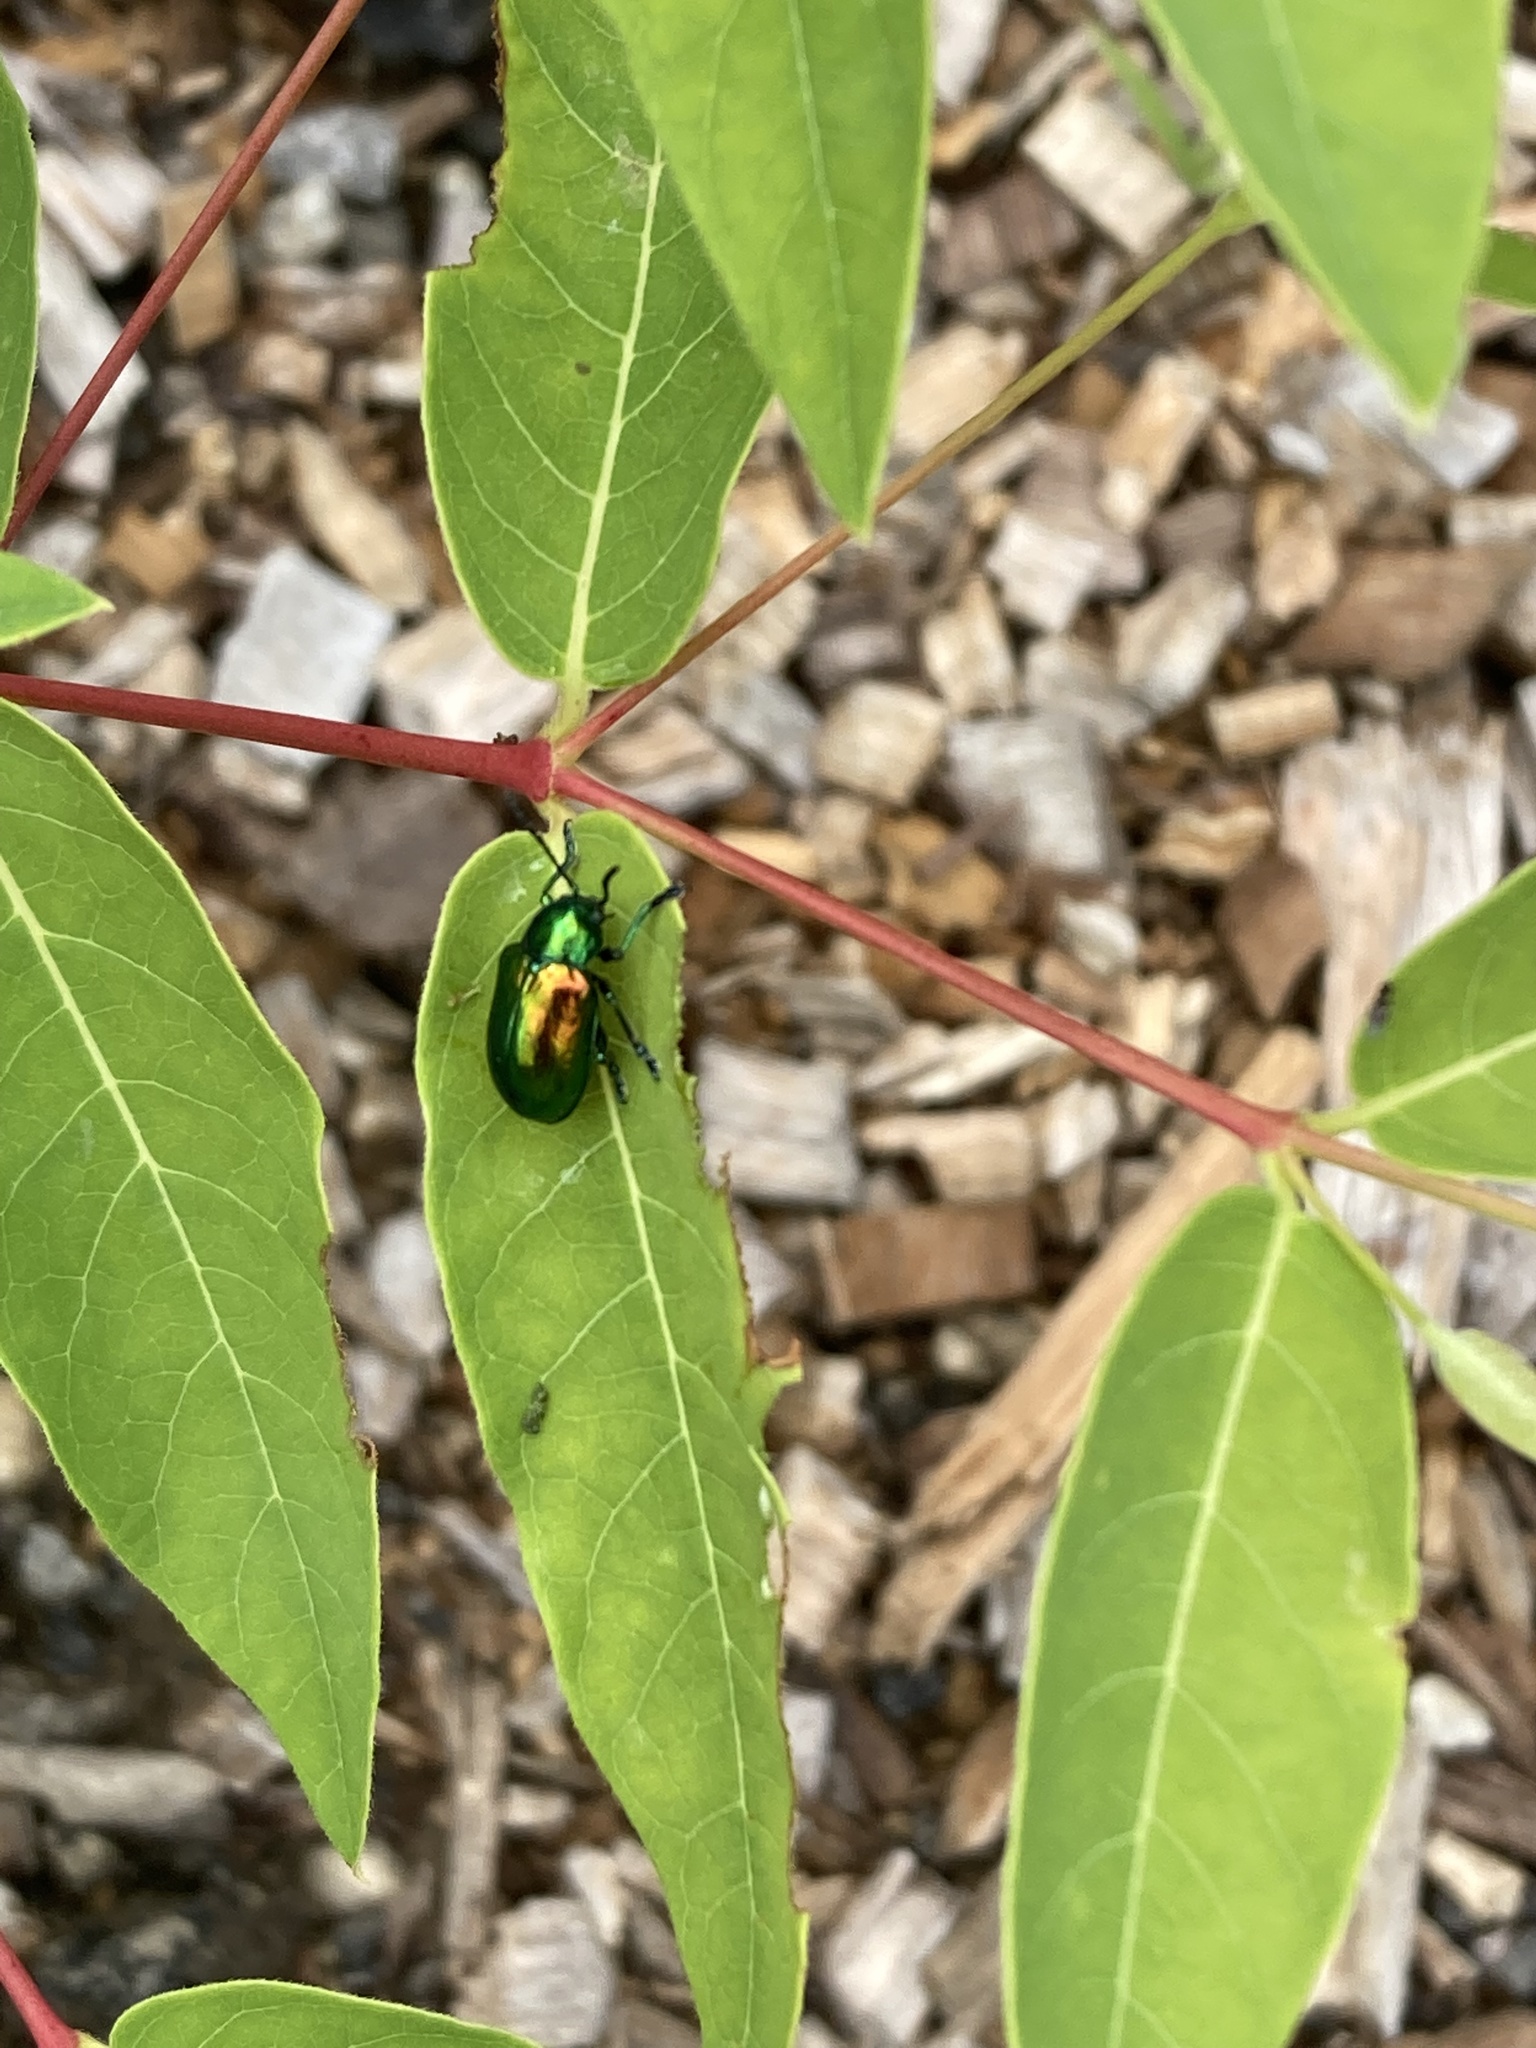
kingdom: Animalia
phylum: Arthropoda
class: Insecta
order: Coleoptera
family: Chrysomelidae
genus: Chrysochus
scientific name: Chrysochus auratus
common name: Dogbane leaf beetle
